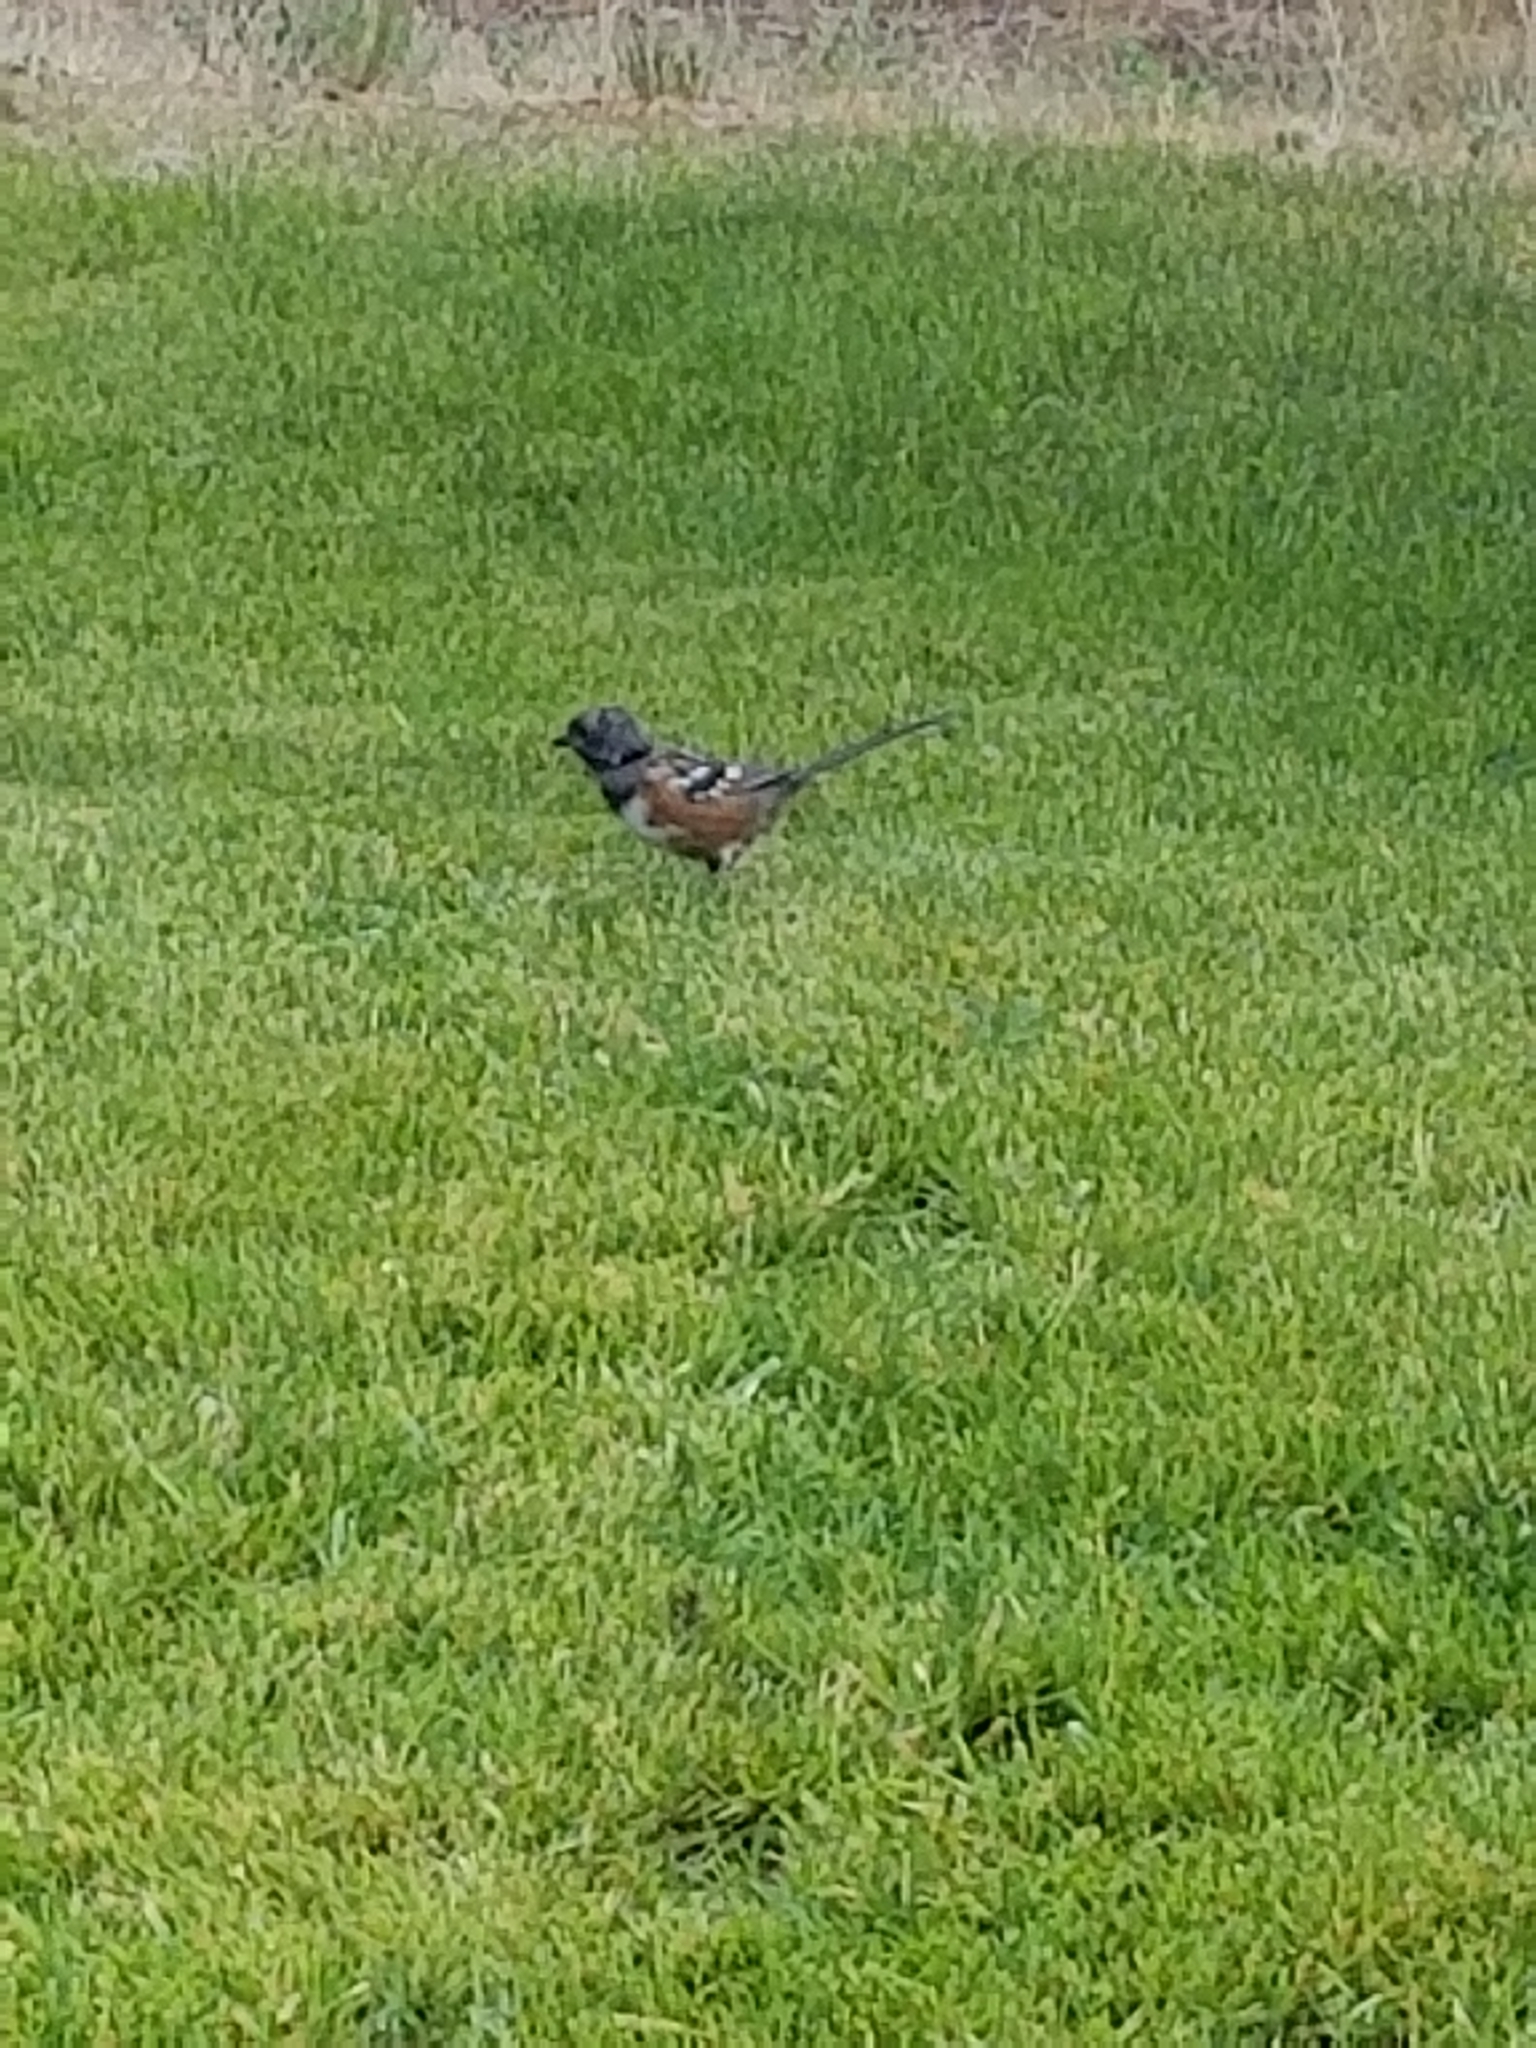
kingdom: Animalia
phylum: Chordata
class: Aves
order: Passeriformes
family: Passerellidae
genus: Pipilo
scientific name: Pipilo maculatus
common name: Spotted towhee
